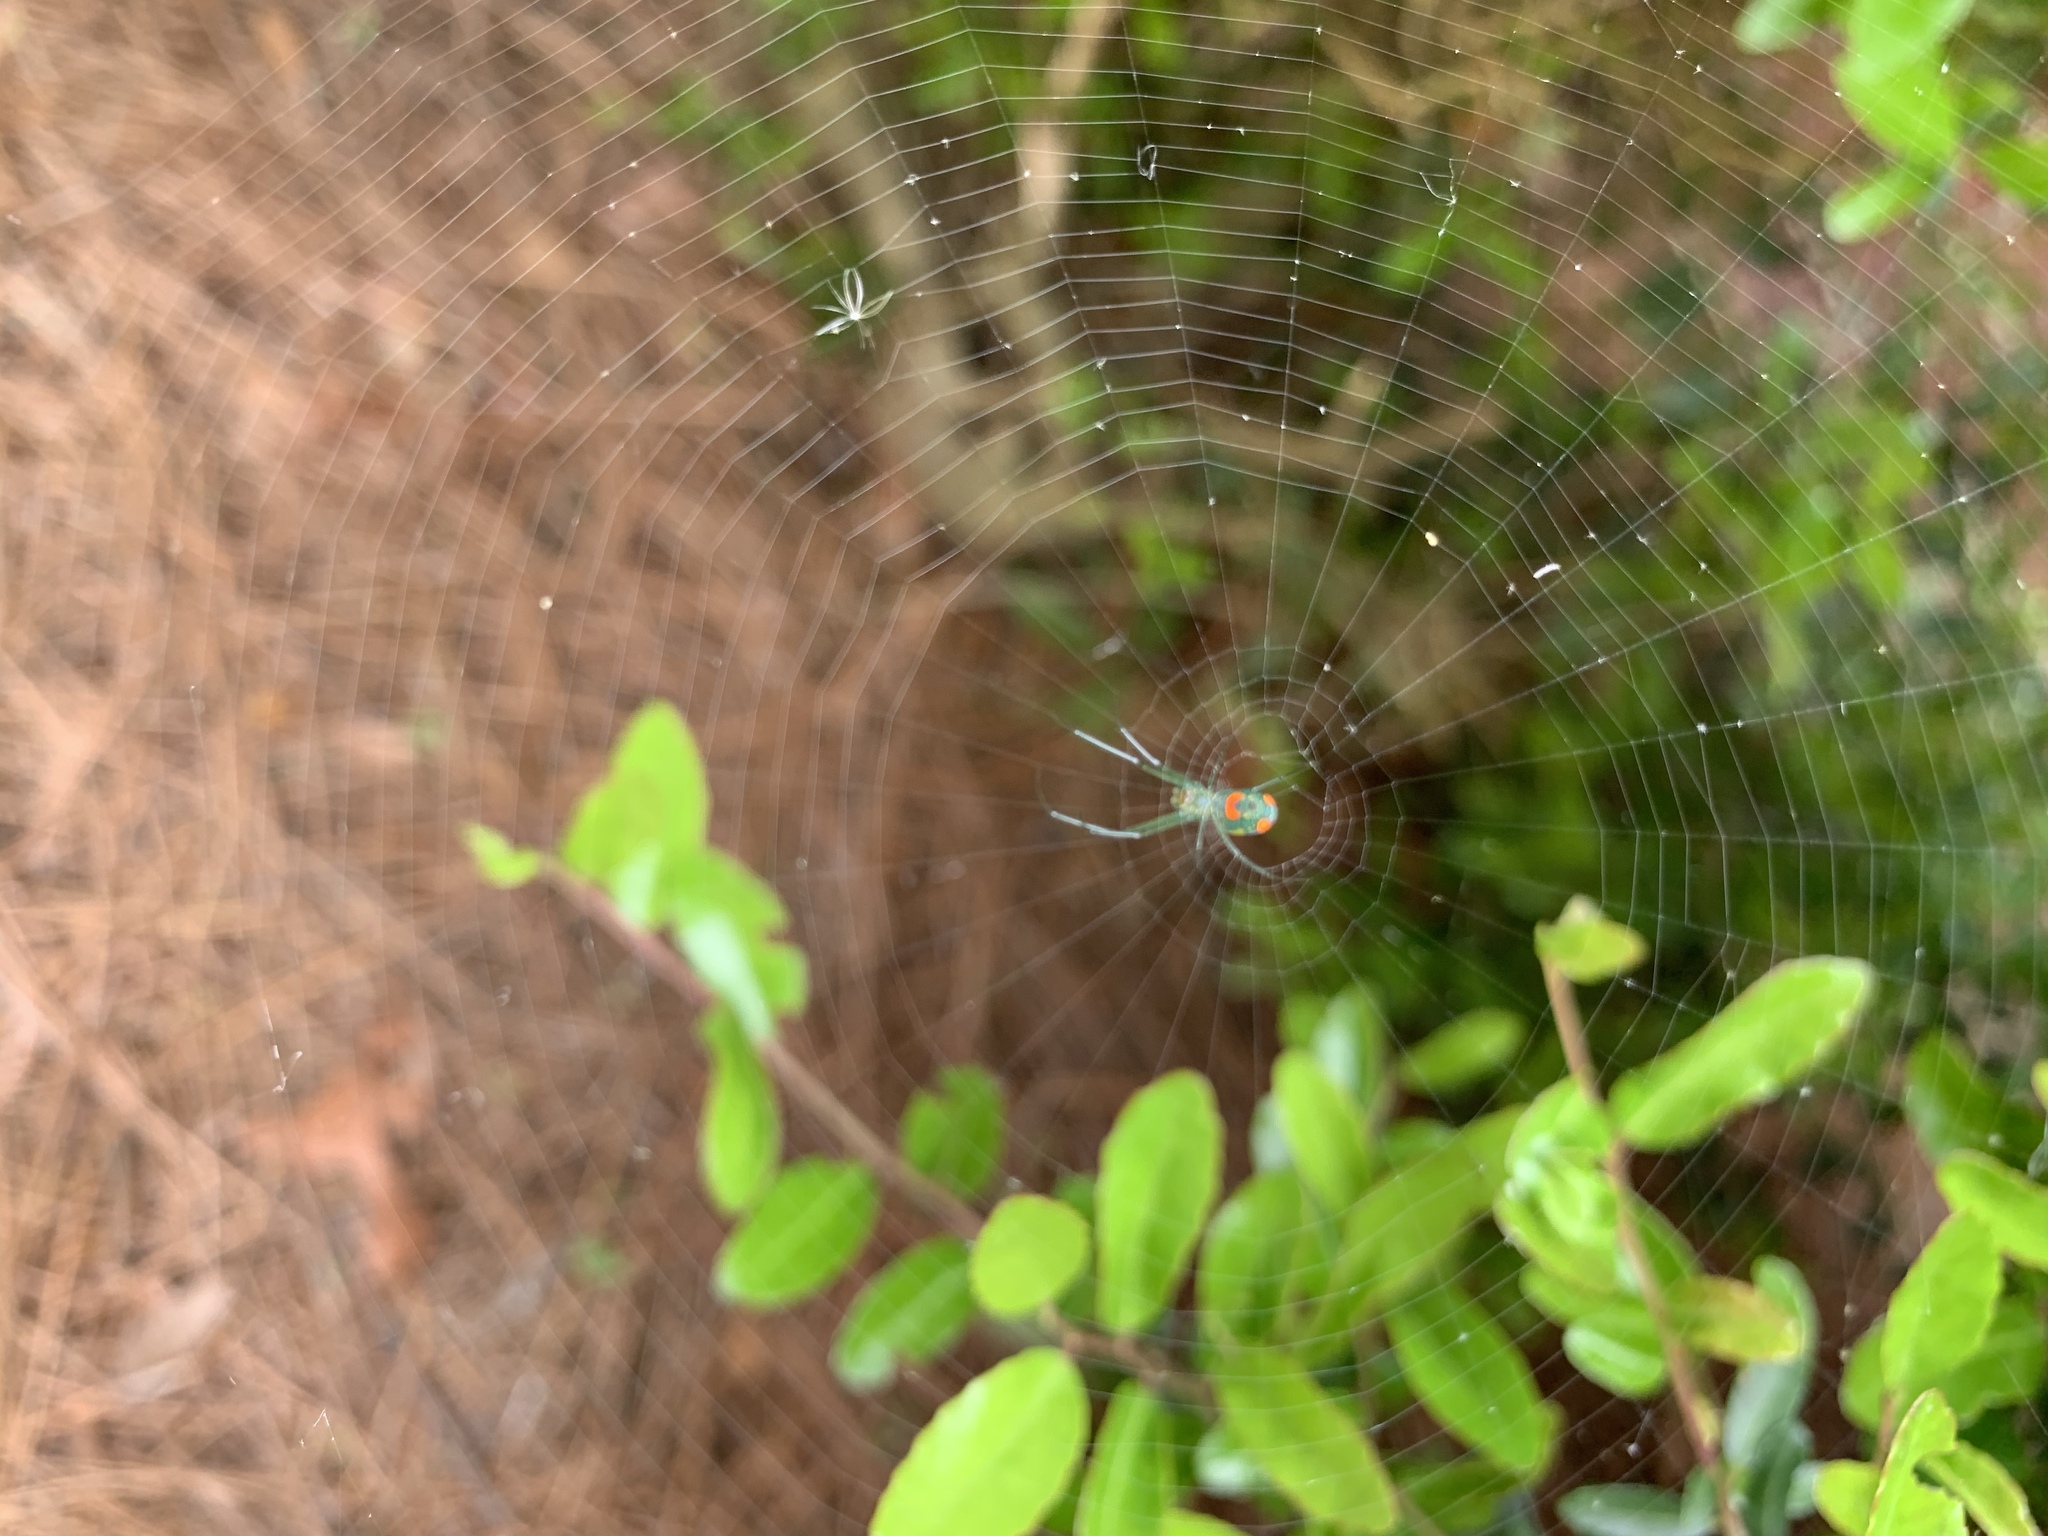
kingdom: Animalia
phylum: Arthropoda
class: Arachnida
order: Araneae
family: Tetragnathidae
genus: Leucauge
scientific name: Leucauge argyrobapta
